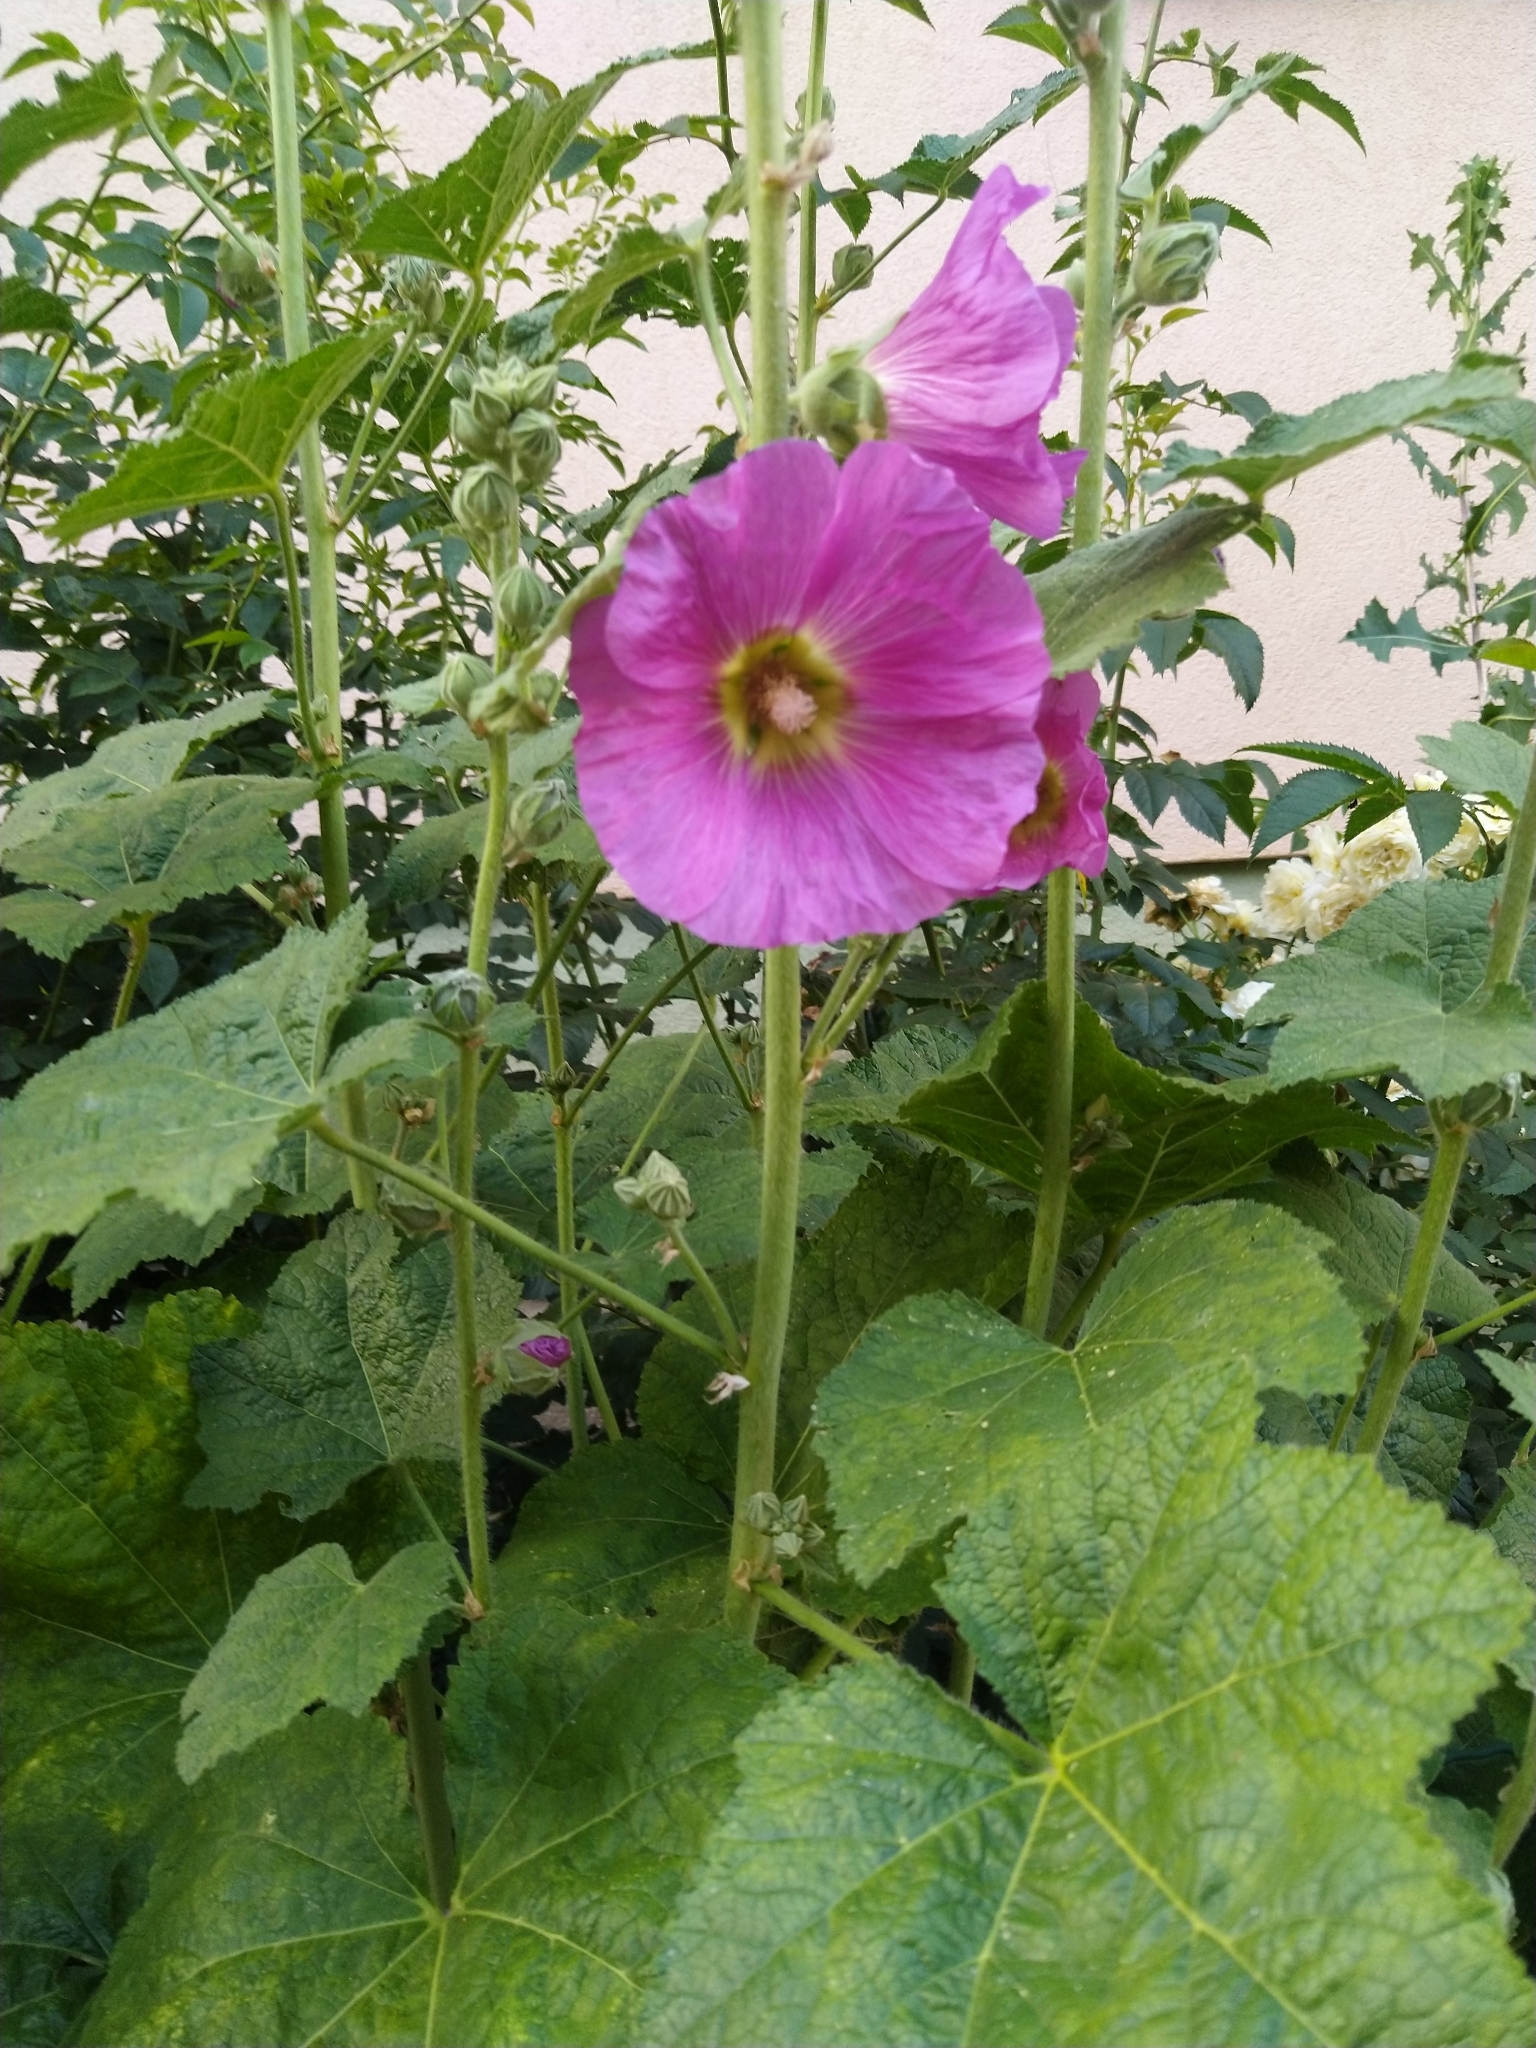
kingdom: Plantae
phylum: Tracheophyta
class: Magnoliopsida
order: Malvales
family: Malvaceae
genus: Alcea
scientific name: Alcea rosea
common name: Hollyhock
